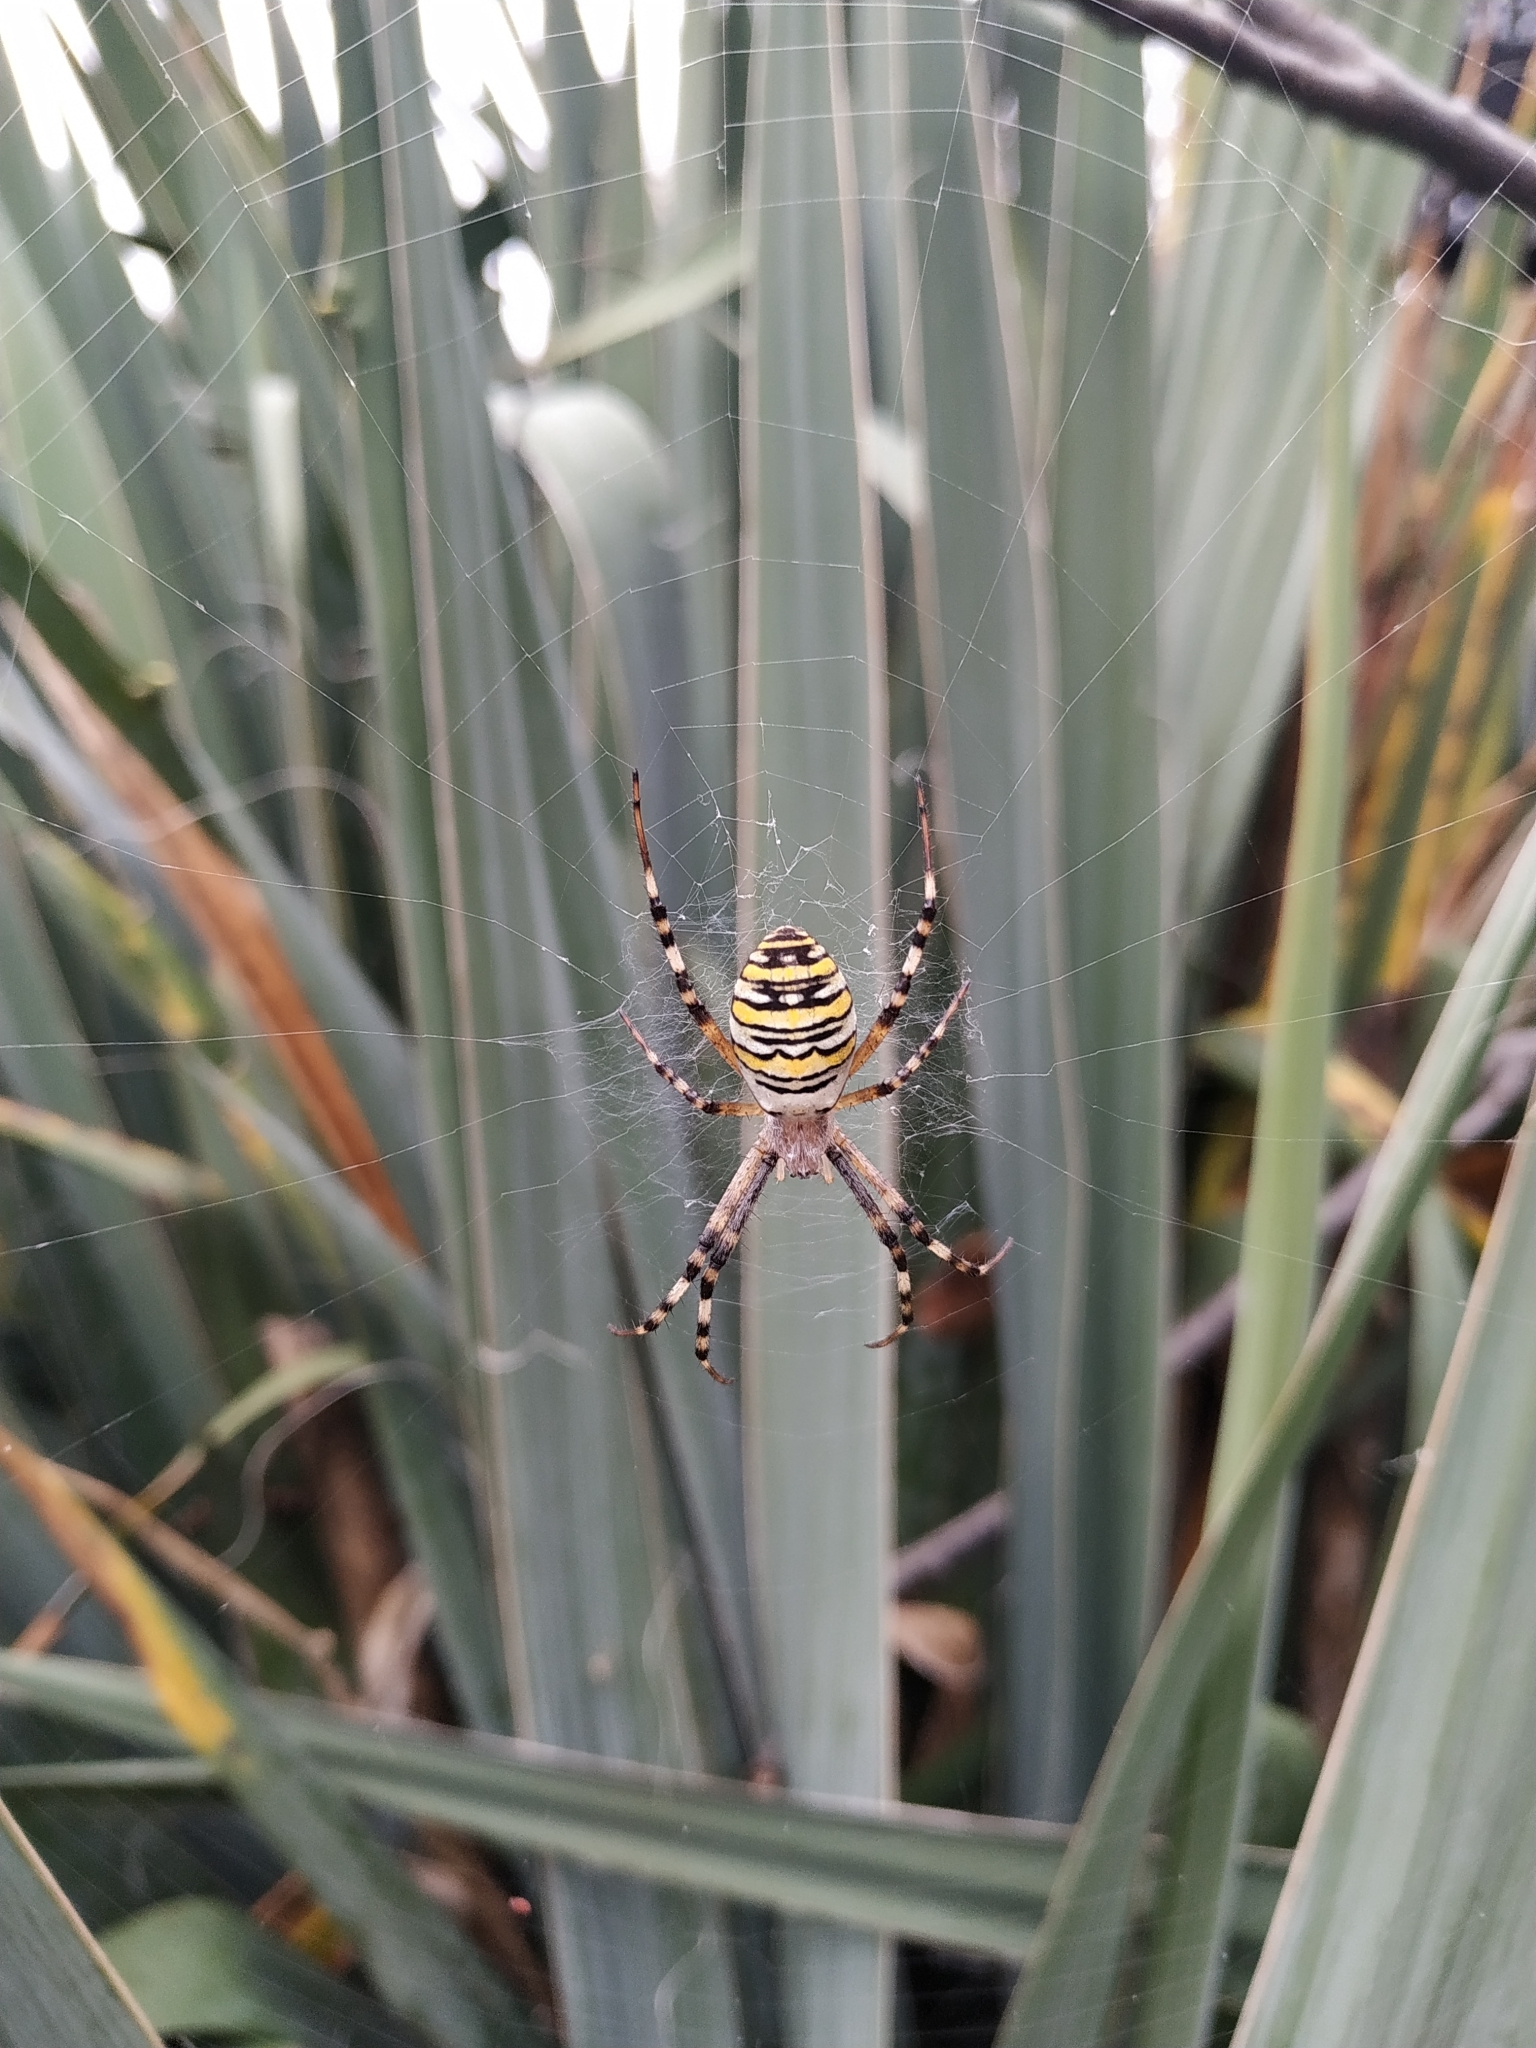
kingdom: Animalia
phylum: Arthropoda
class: Arachnida
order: Araneae
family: Araneidae
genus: Argiope
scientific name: Argiope bruennichi
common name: Wasp spider
